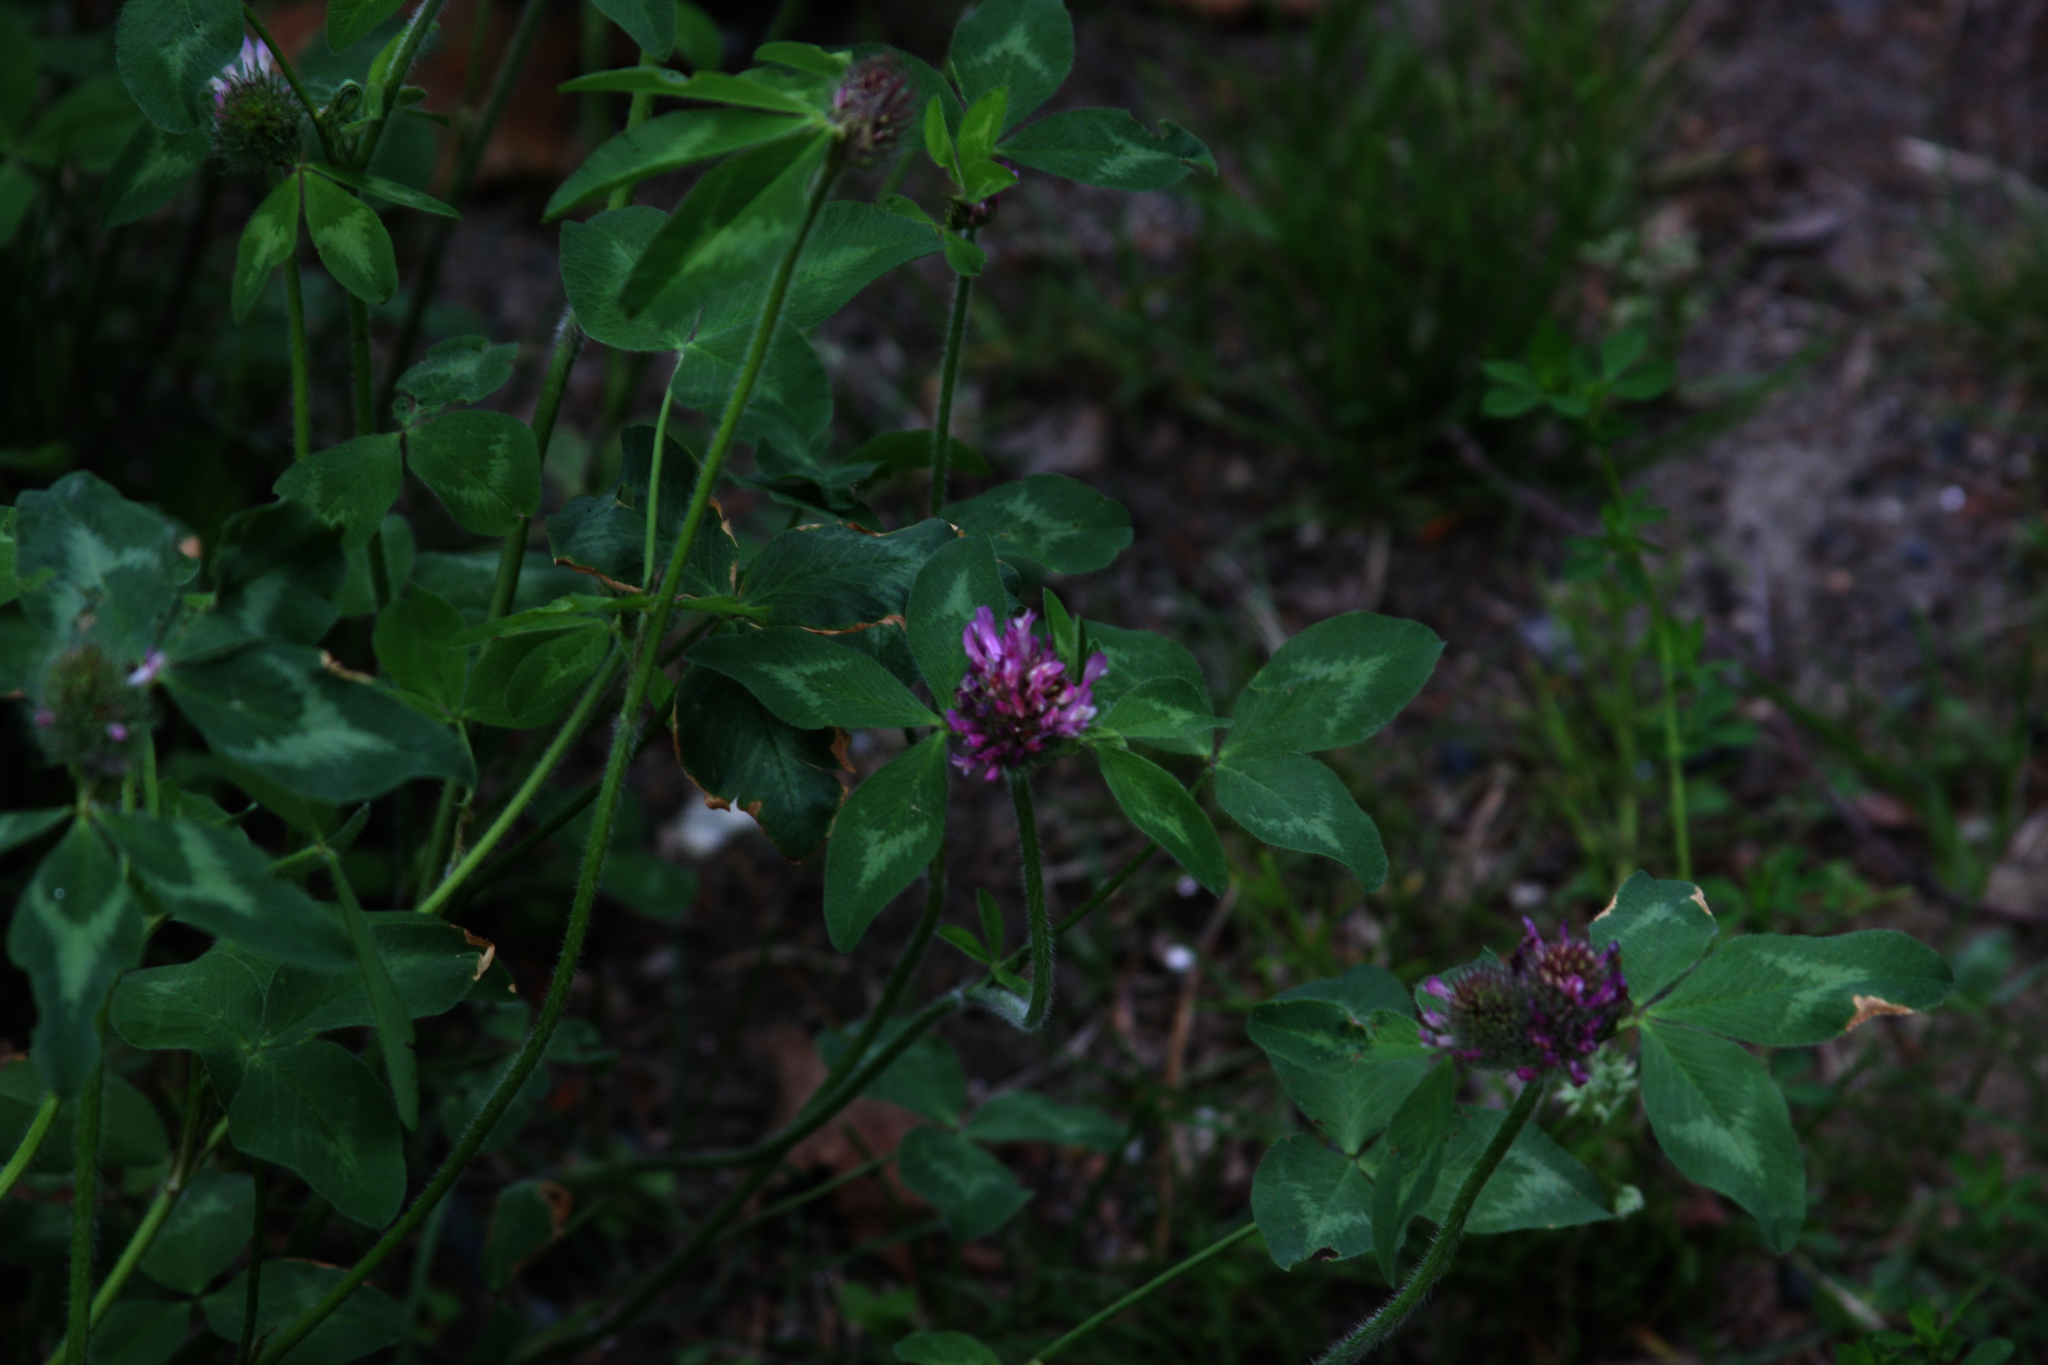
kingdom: Plantae
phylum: Tracheophyta
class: Magnoliopsida
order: Fabales
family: Fabaceae
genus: Trifolium
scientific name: Trifolium pratense
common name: Red clover
